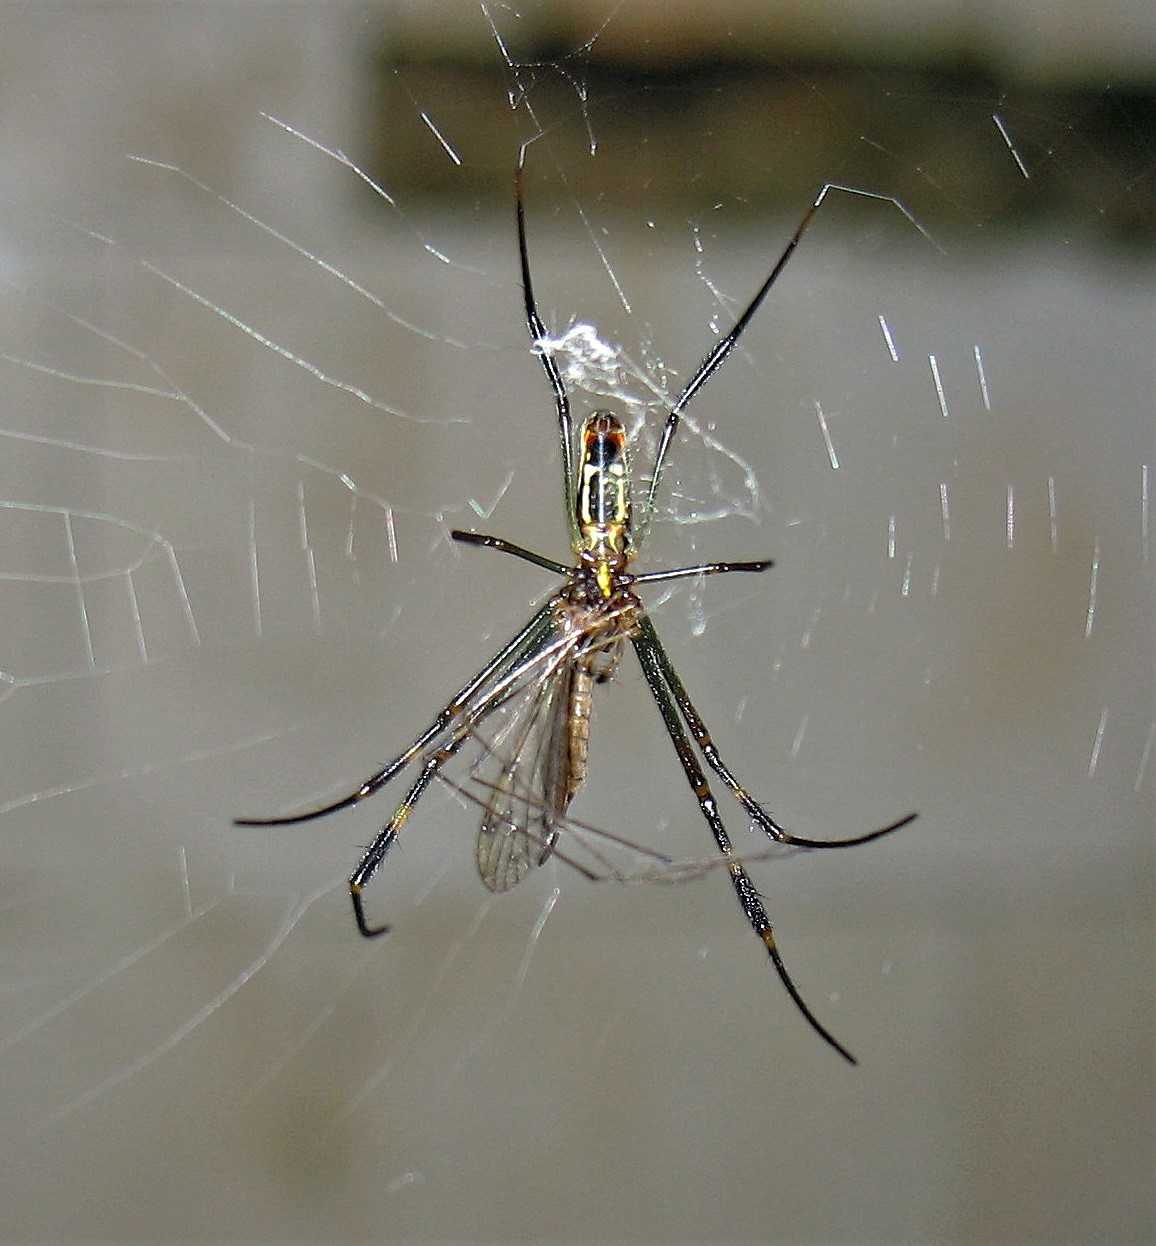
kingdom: Animalia
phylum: Arthropoda
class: Arachnida
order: Araneae
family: Araneidae
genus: Trichonephila
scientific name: Trichonephila clavipes
